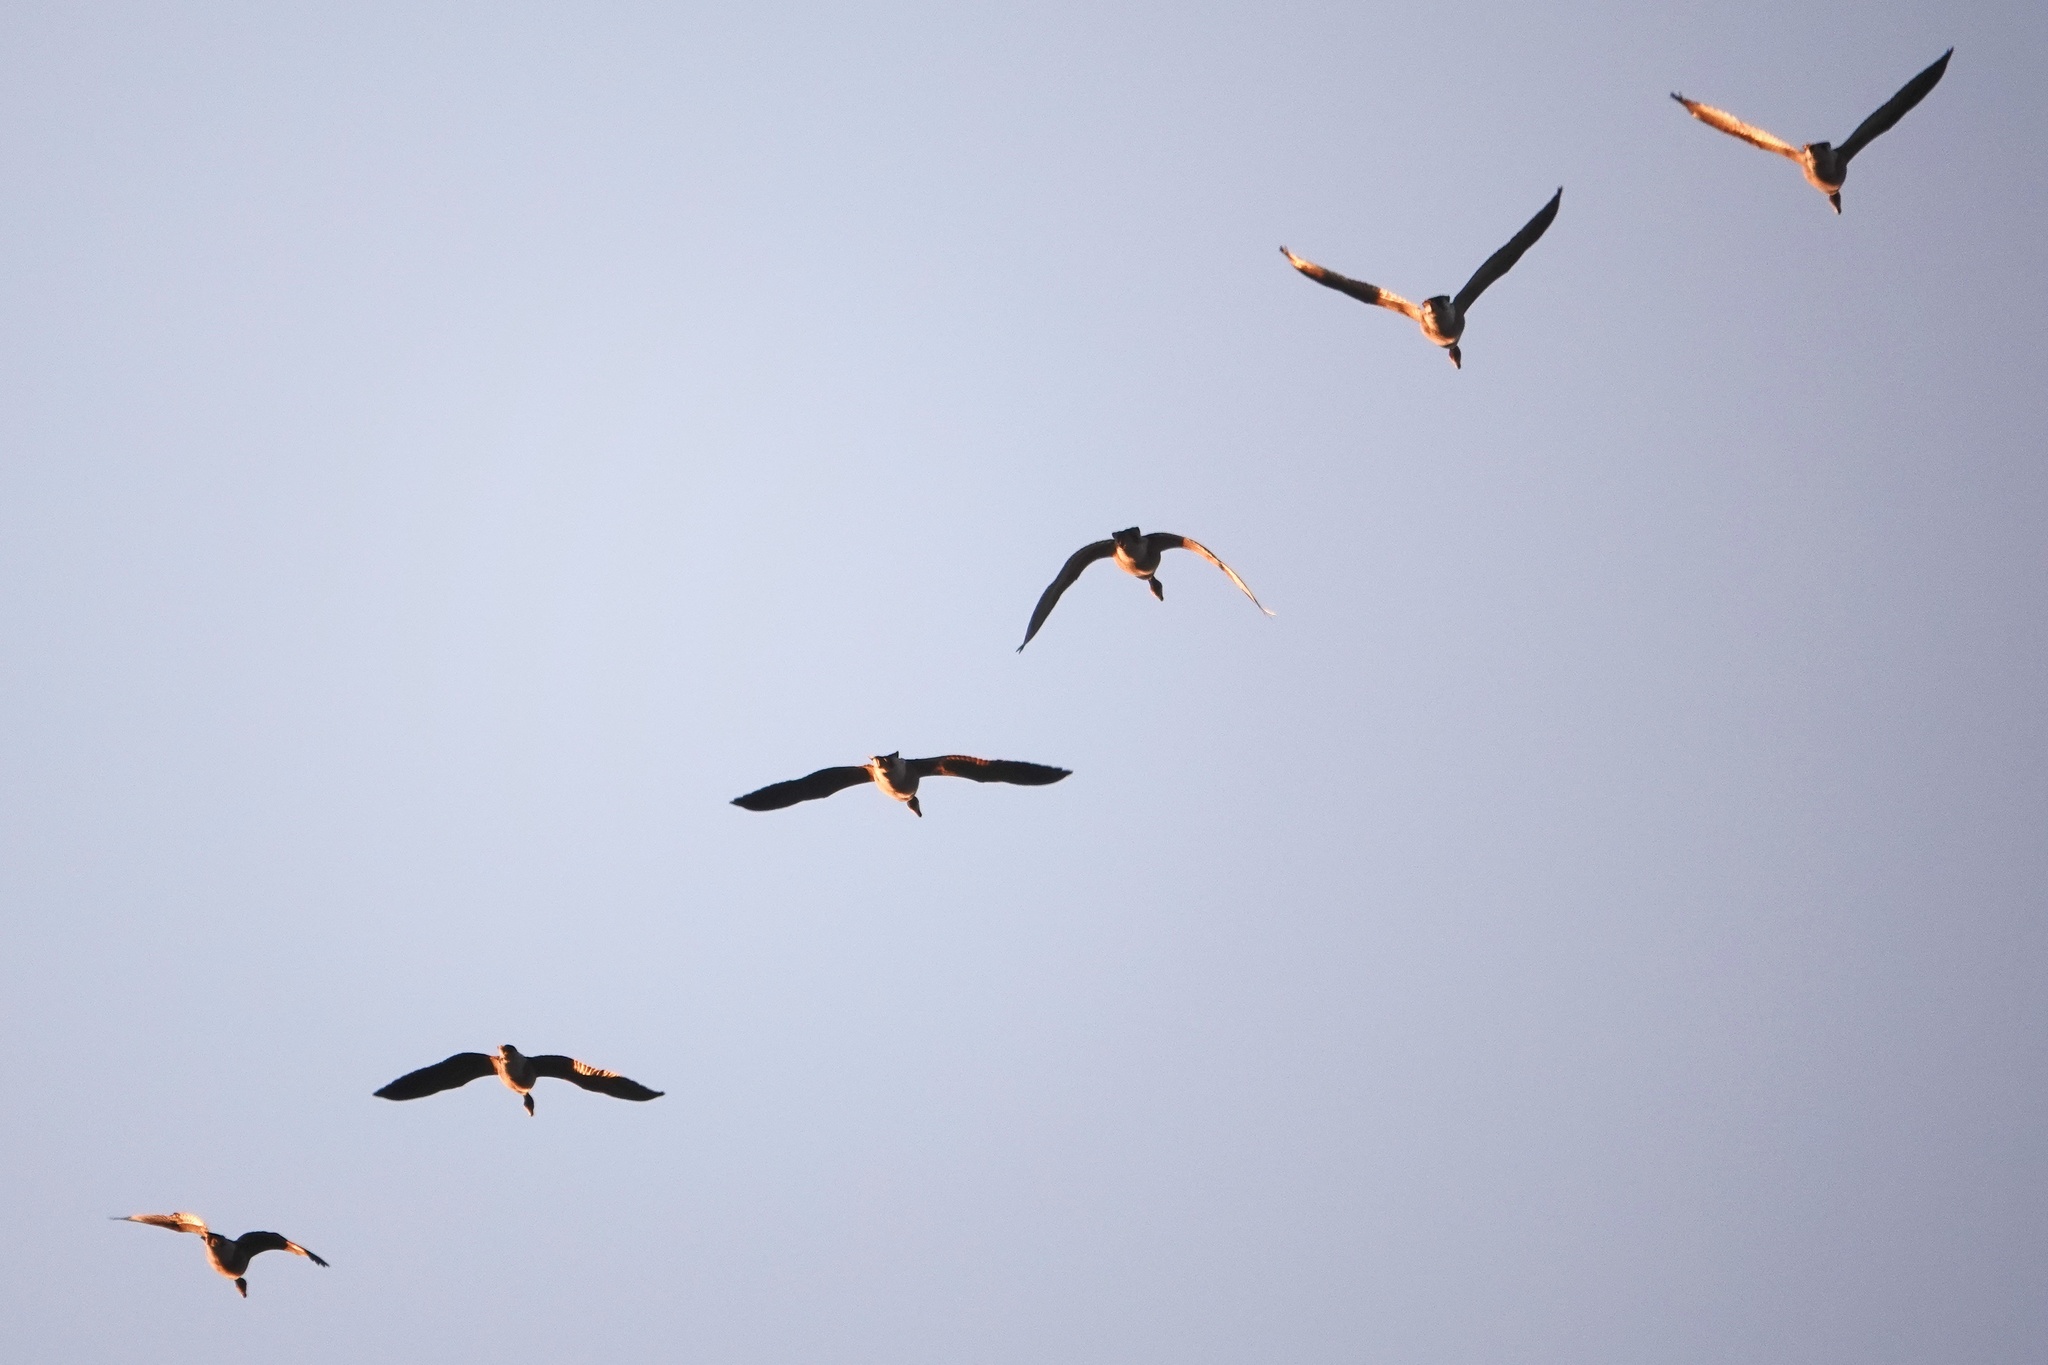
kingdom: Animalia
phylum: Chordata
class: Aves
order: Anseriformes
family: Anatidae
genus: Branta
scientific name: Branta canadensis
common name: Canada goose
